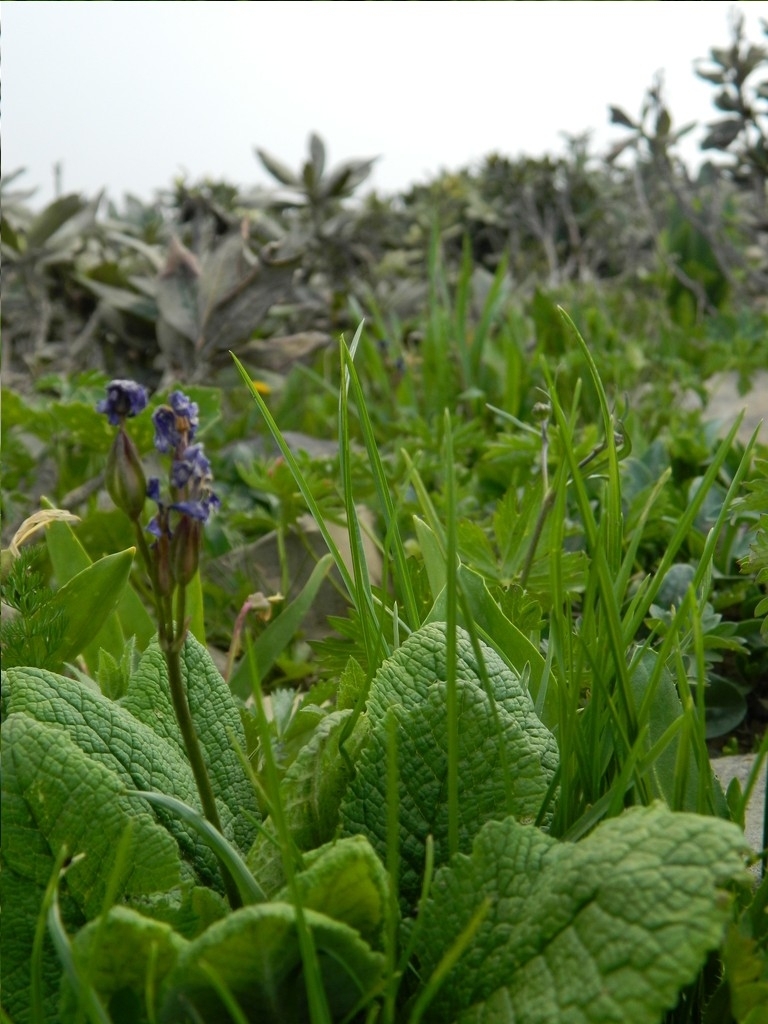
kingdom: Plantae
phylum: Tracheophyta
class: Magnoliopsida
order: Ericales
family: Primulaceae
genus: Primula
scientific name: Primula amoena
